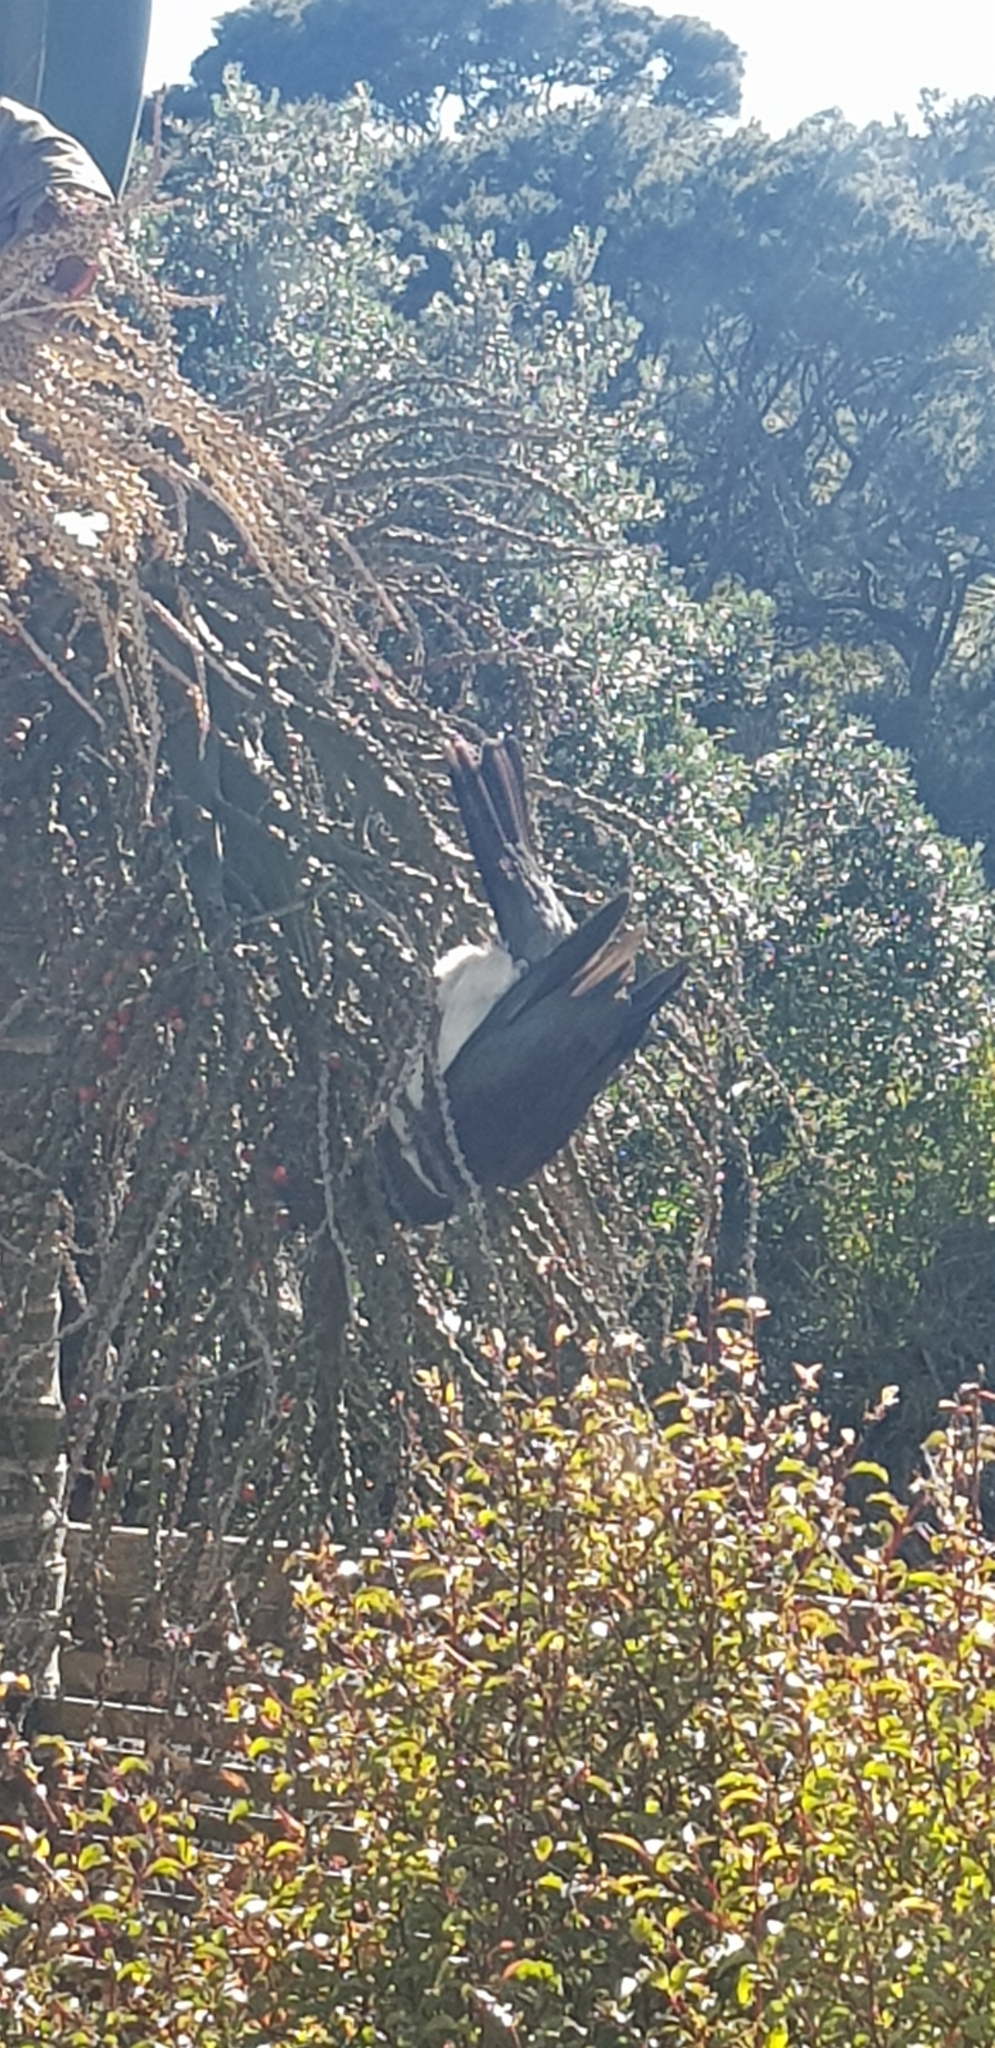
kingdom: Animalia
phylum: Chordata
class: Aves
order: Columbiformes
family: Columbidae
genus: Hemiphaga
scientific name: Hemiphaga novaeseelandiae
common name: New zealand pigeon
